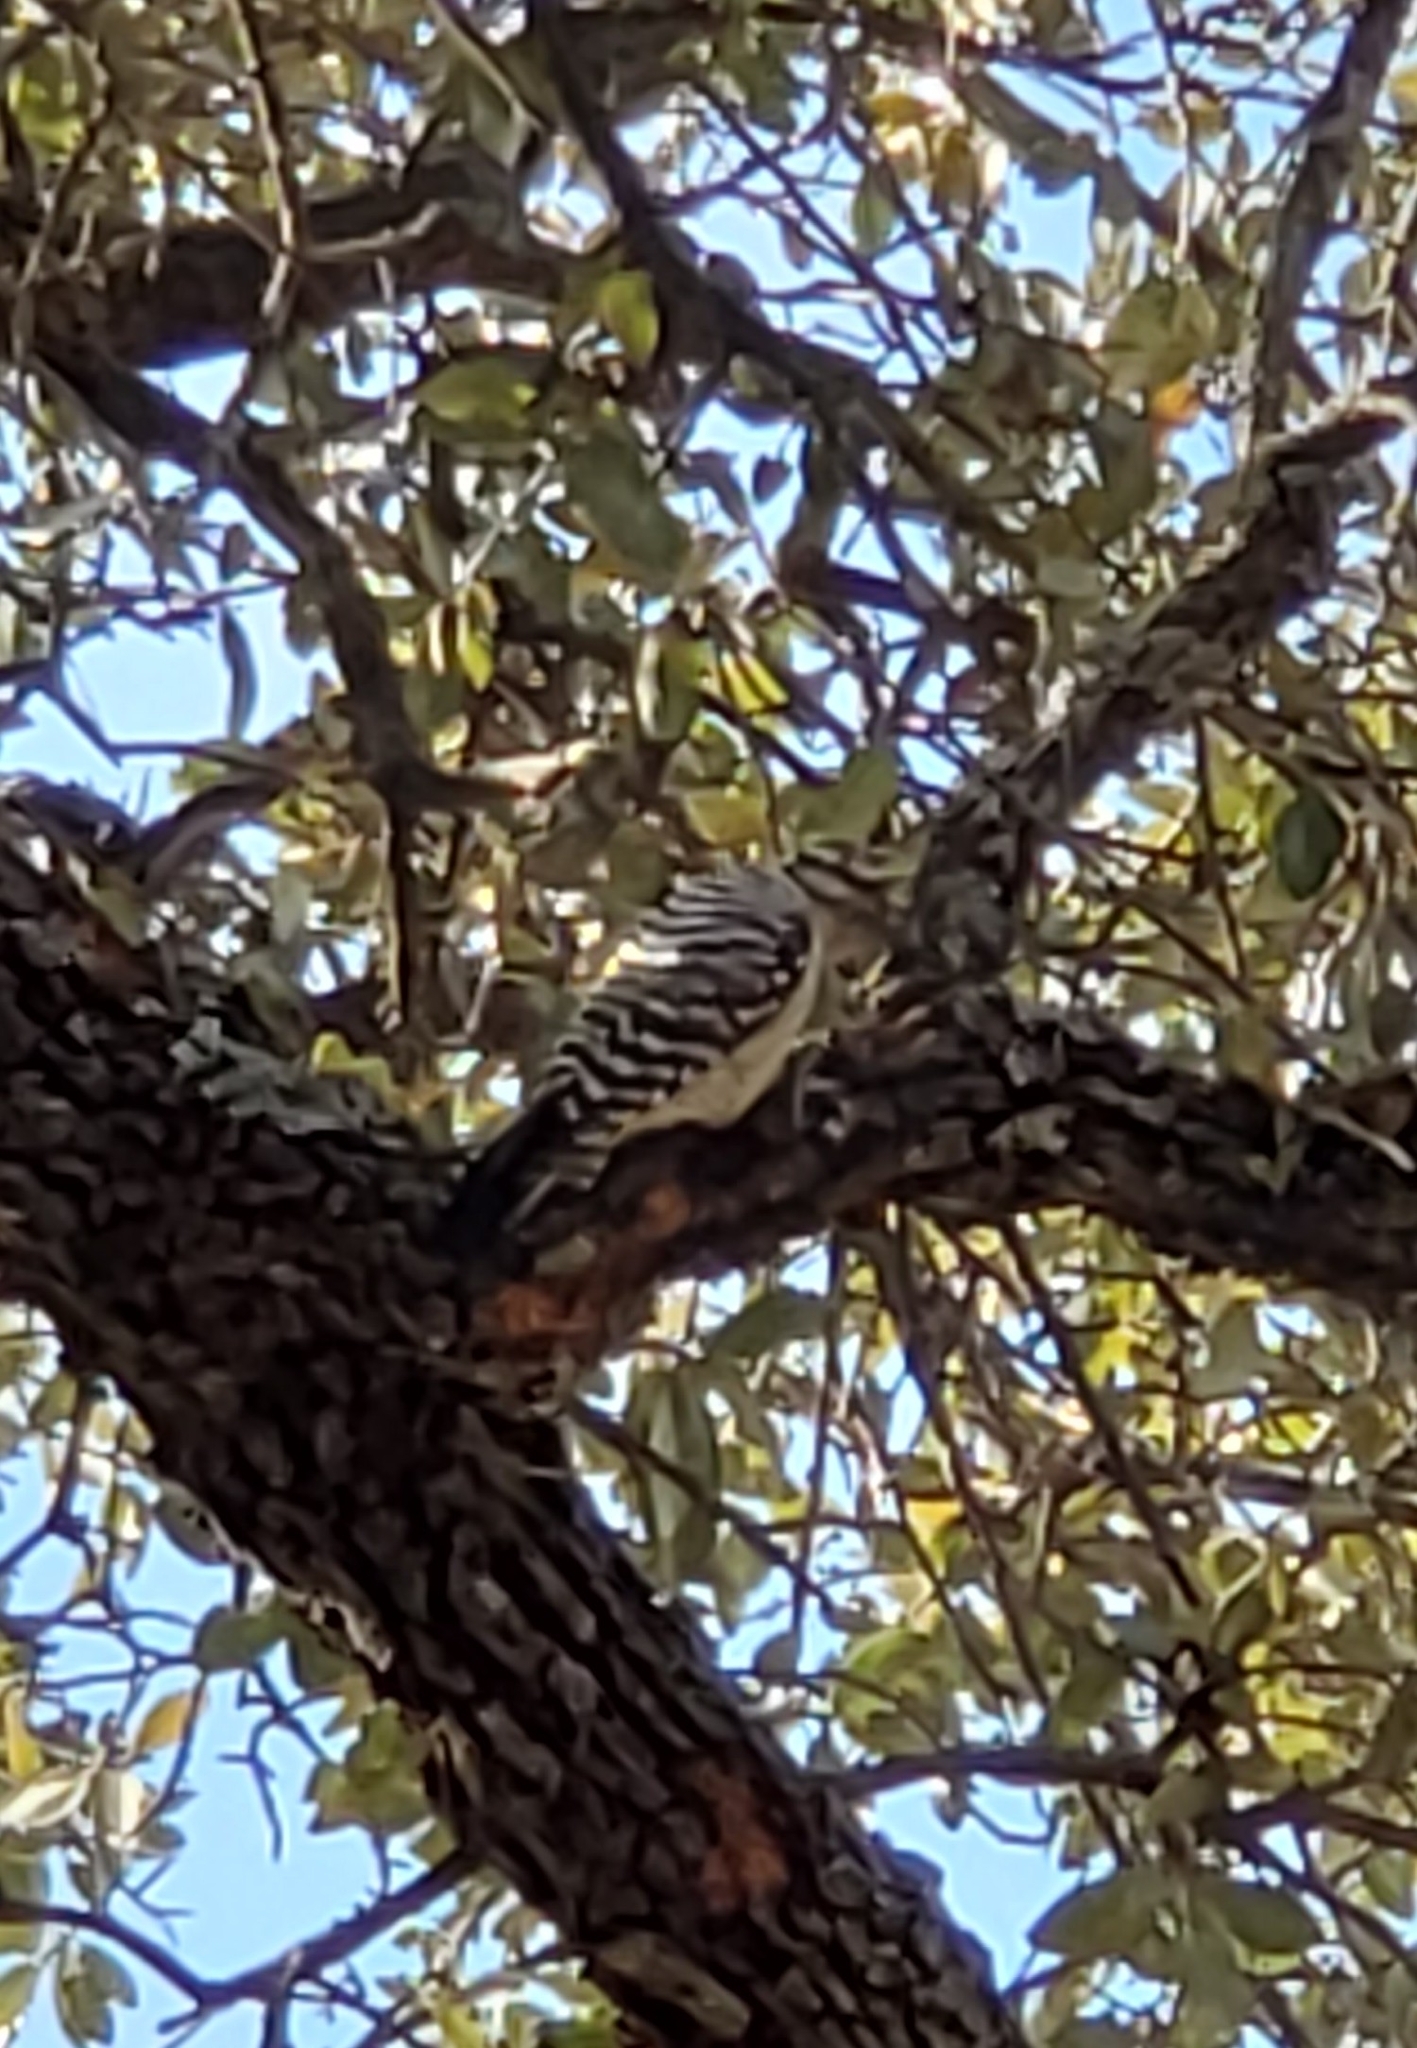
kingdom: Animalia
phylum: Chordata
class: Aves
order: Piciformes
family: Picidae
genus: Dryobates
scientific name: Dryobates scalaris
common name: Ladder-backed woodpecker
